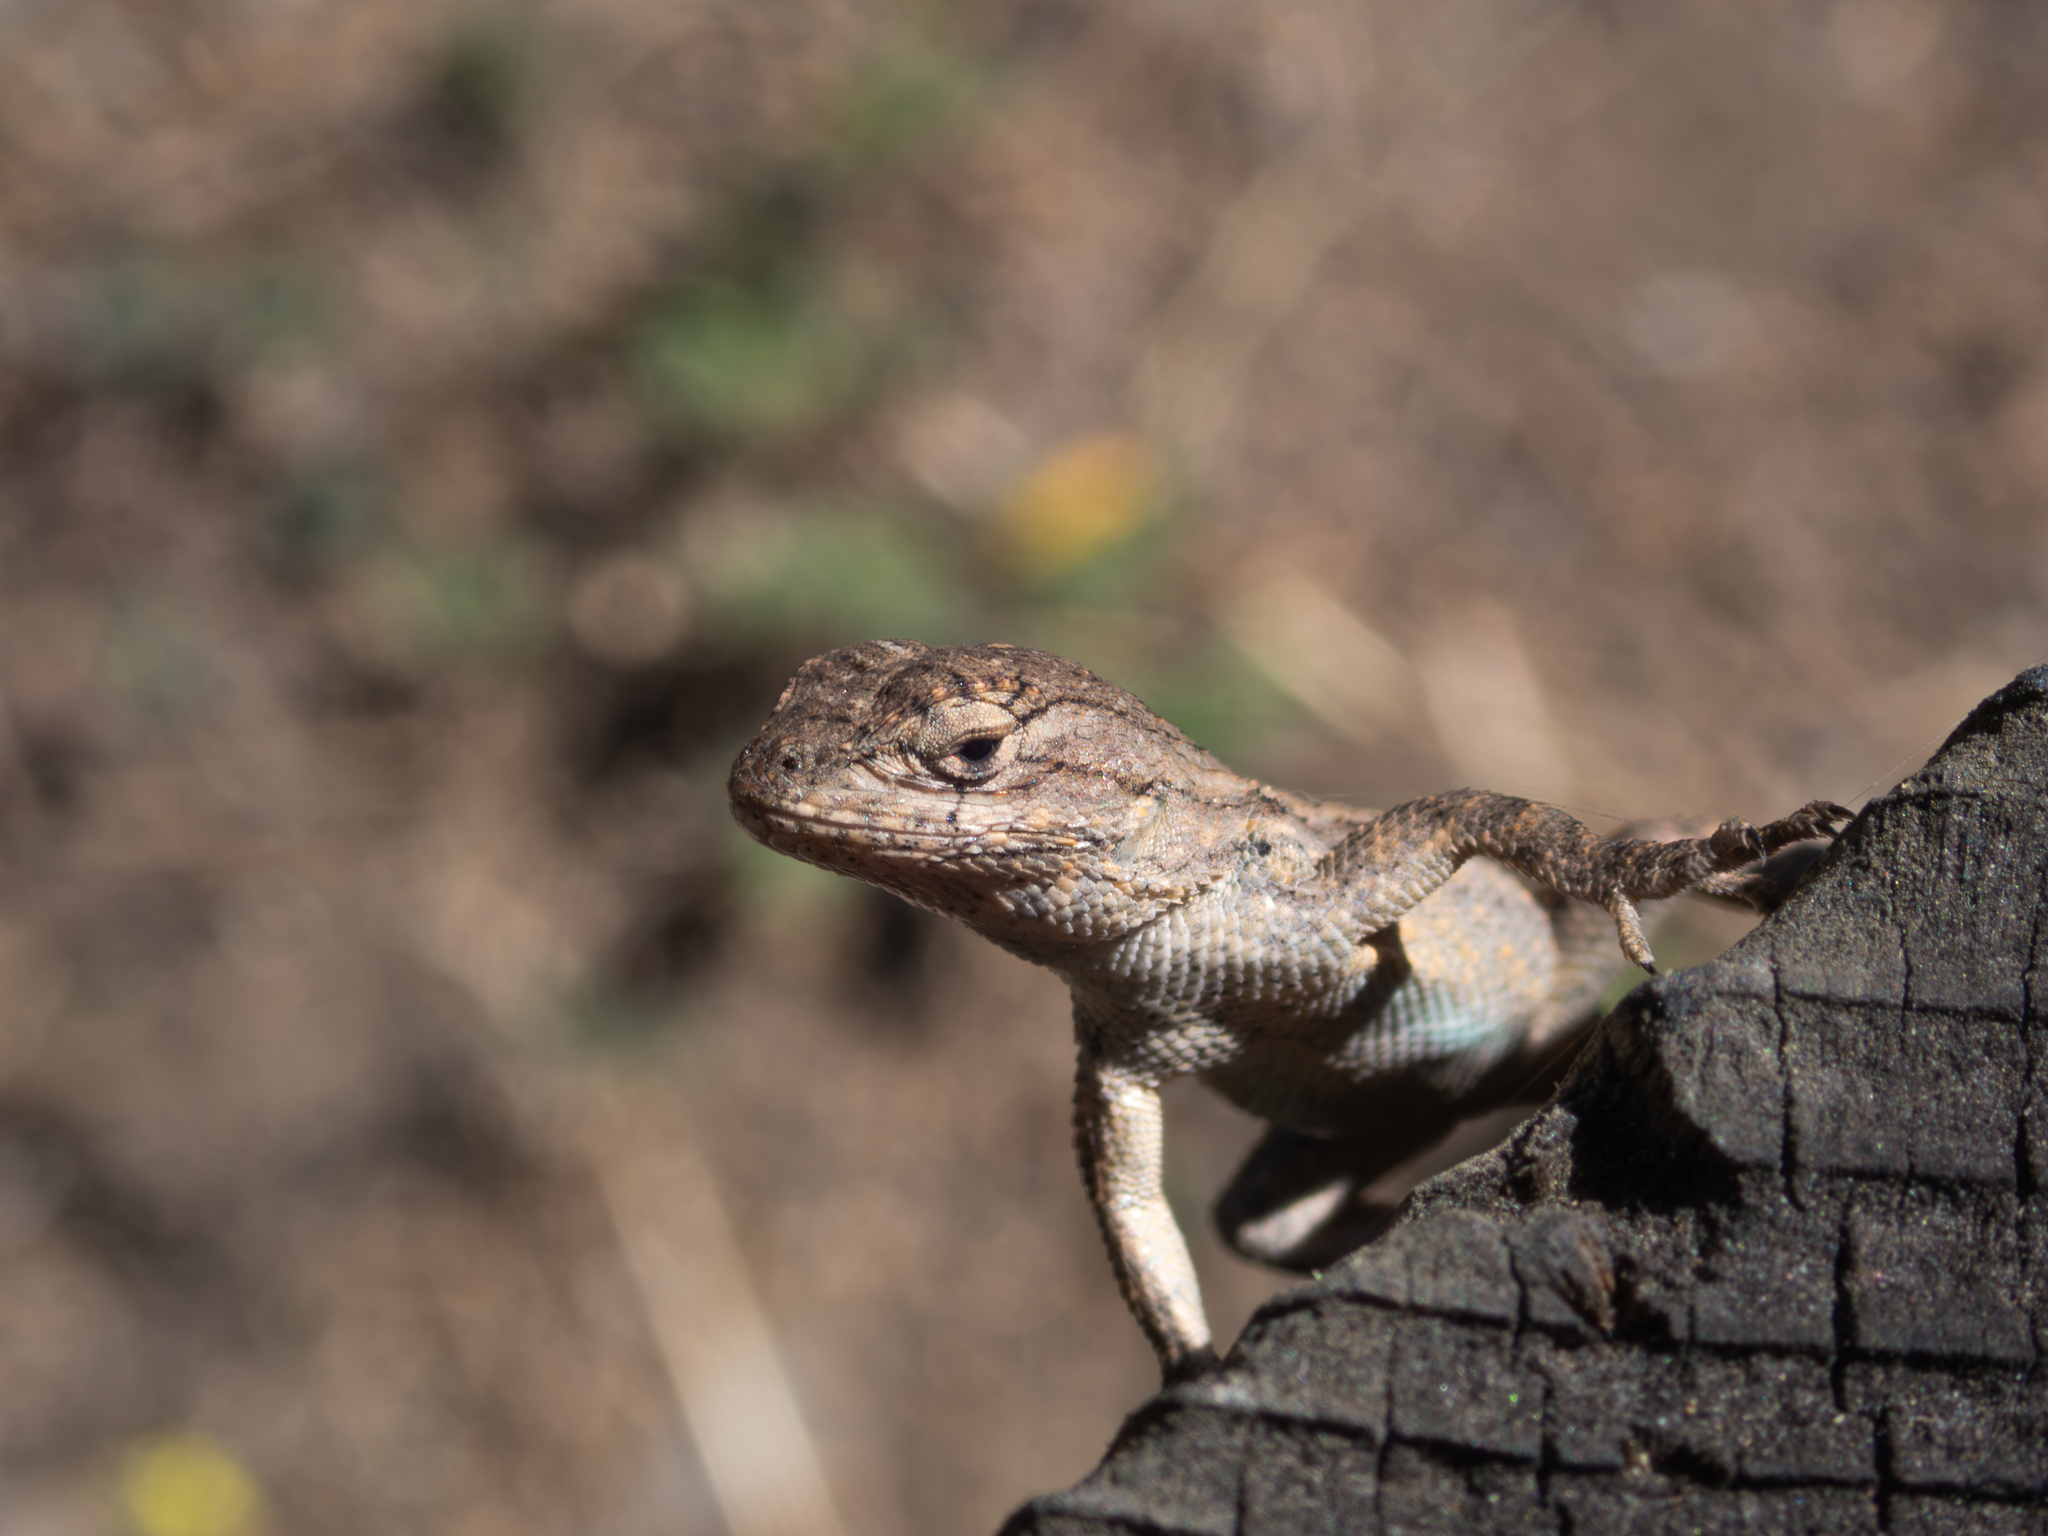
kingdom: Animalia
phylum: Chordata
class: Squamata
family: Phrynosomatidae
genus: Sceloporus
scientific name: Sceloporus occidentalis
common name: Western fence lizard
